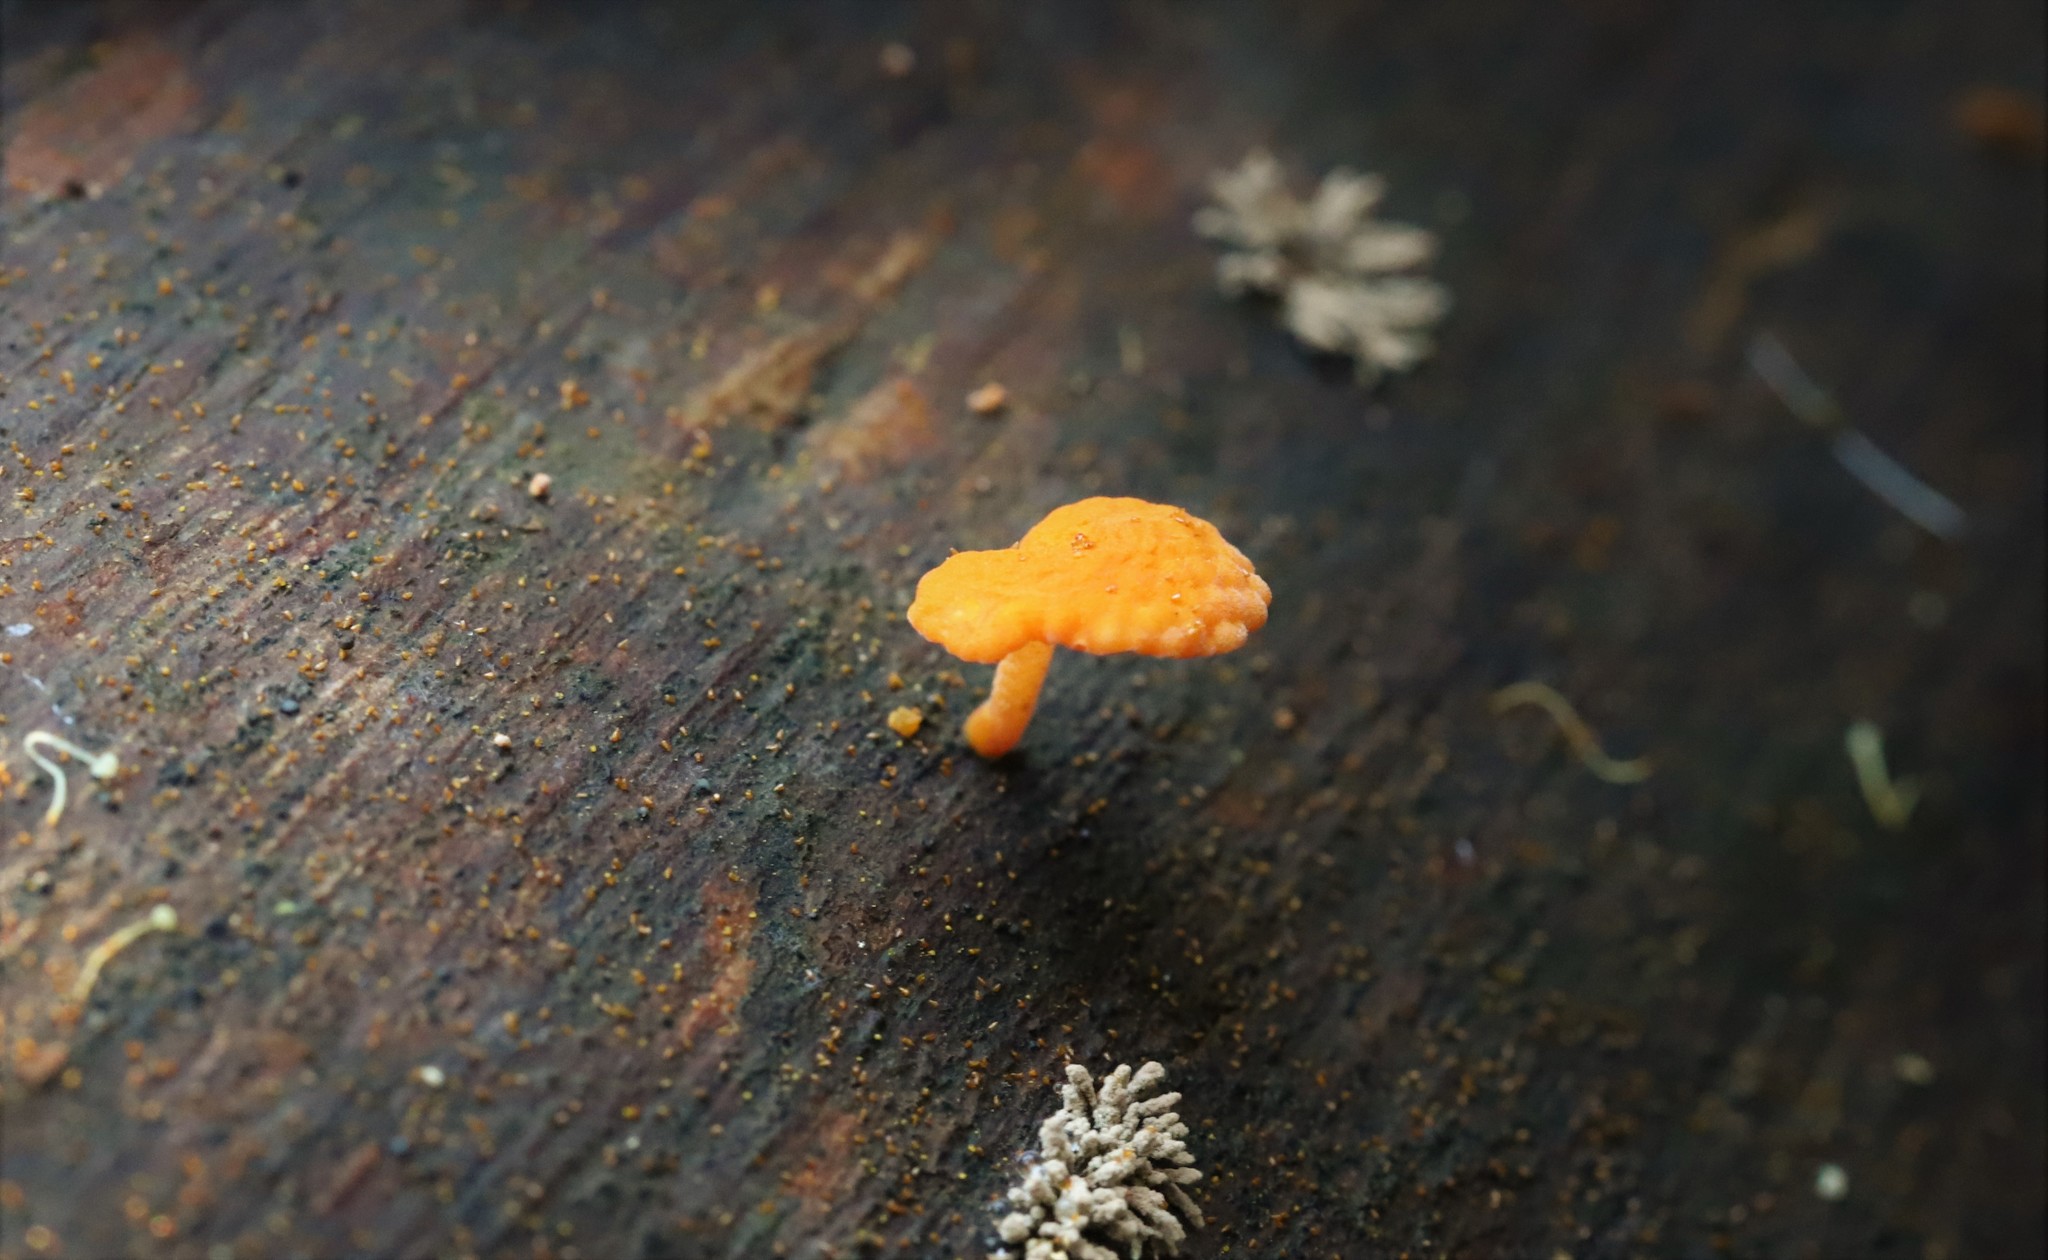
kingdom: Fungi
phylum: Basidiomycota
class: Agaricomycetes
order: Agaricales
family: Mycenaceae
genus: Favolaschia
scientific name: Favolaschia claudopus
